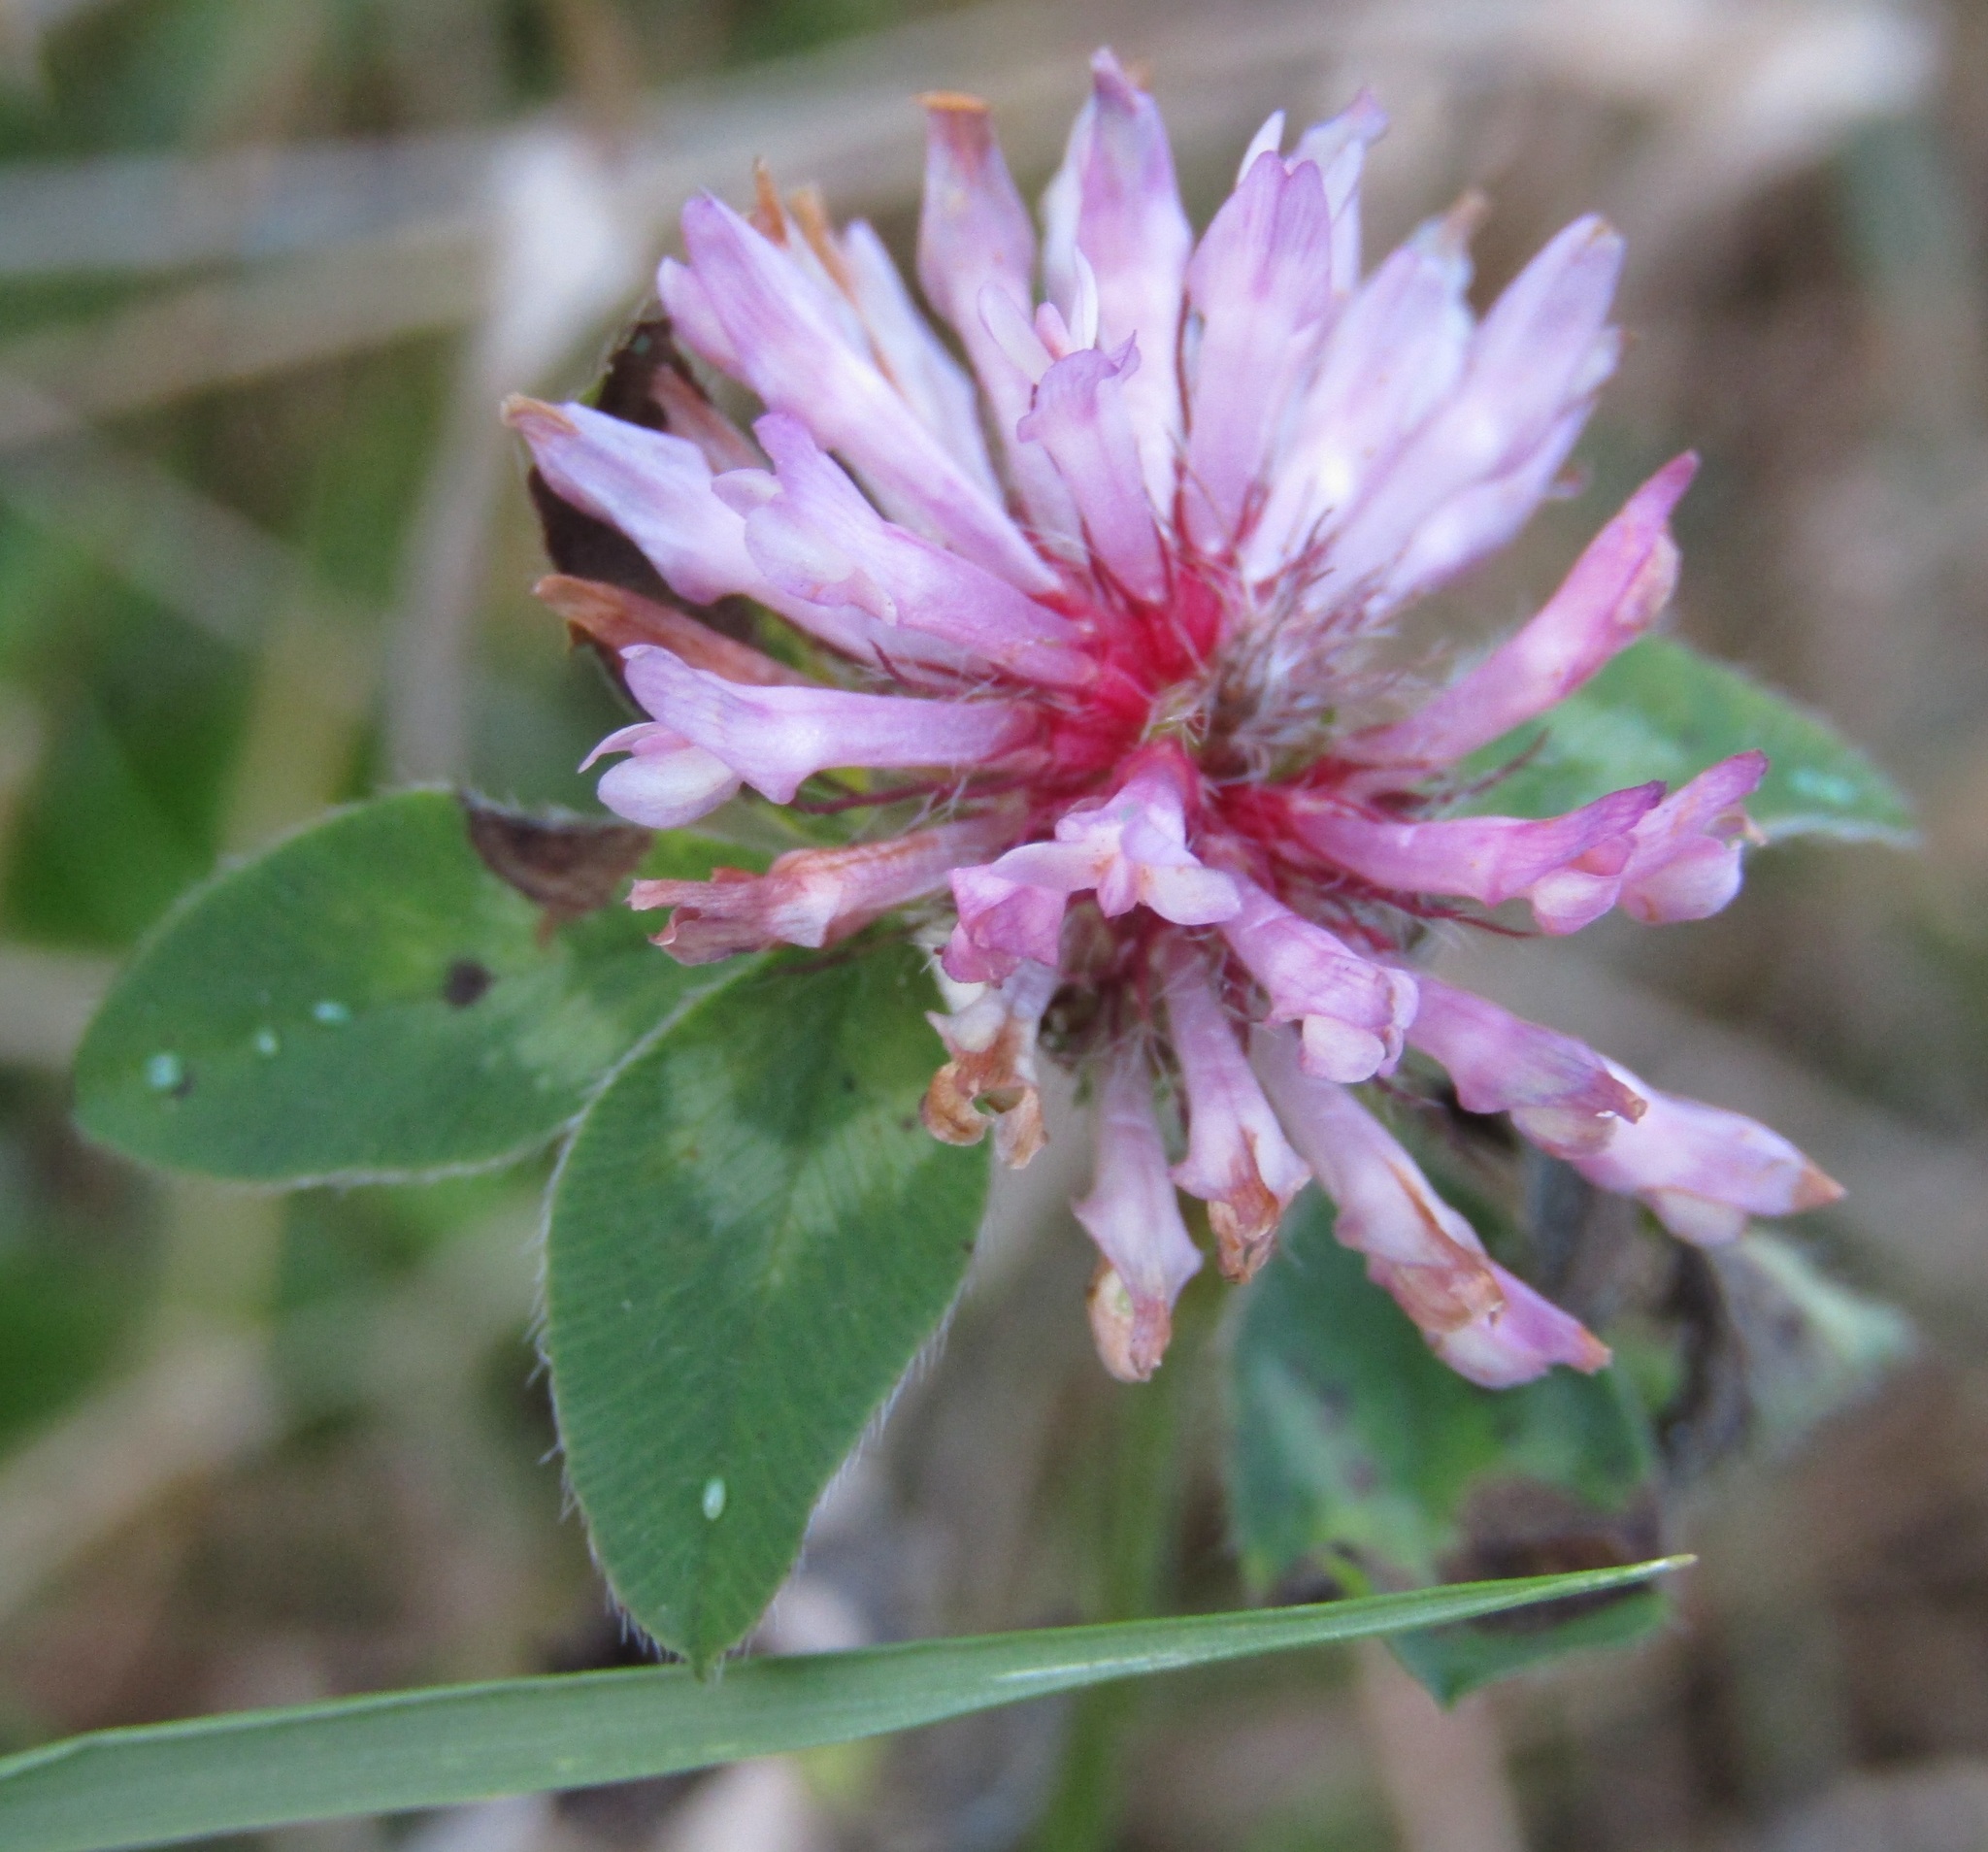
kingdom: Plantae
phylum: Tracheophyta
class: Magnoliopsida
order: Fabales
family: Fabaceae
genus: Trifolium
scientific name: Trifolium pratense
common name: Red clover
